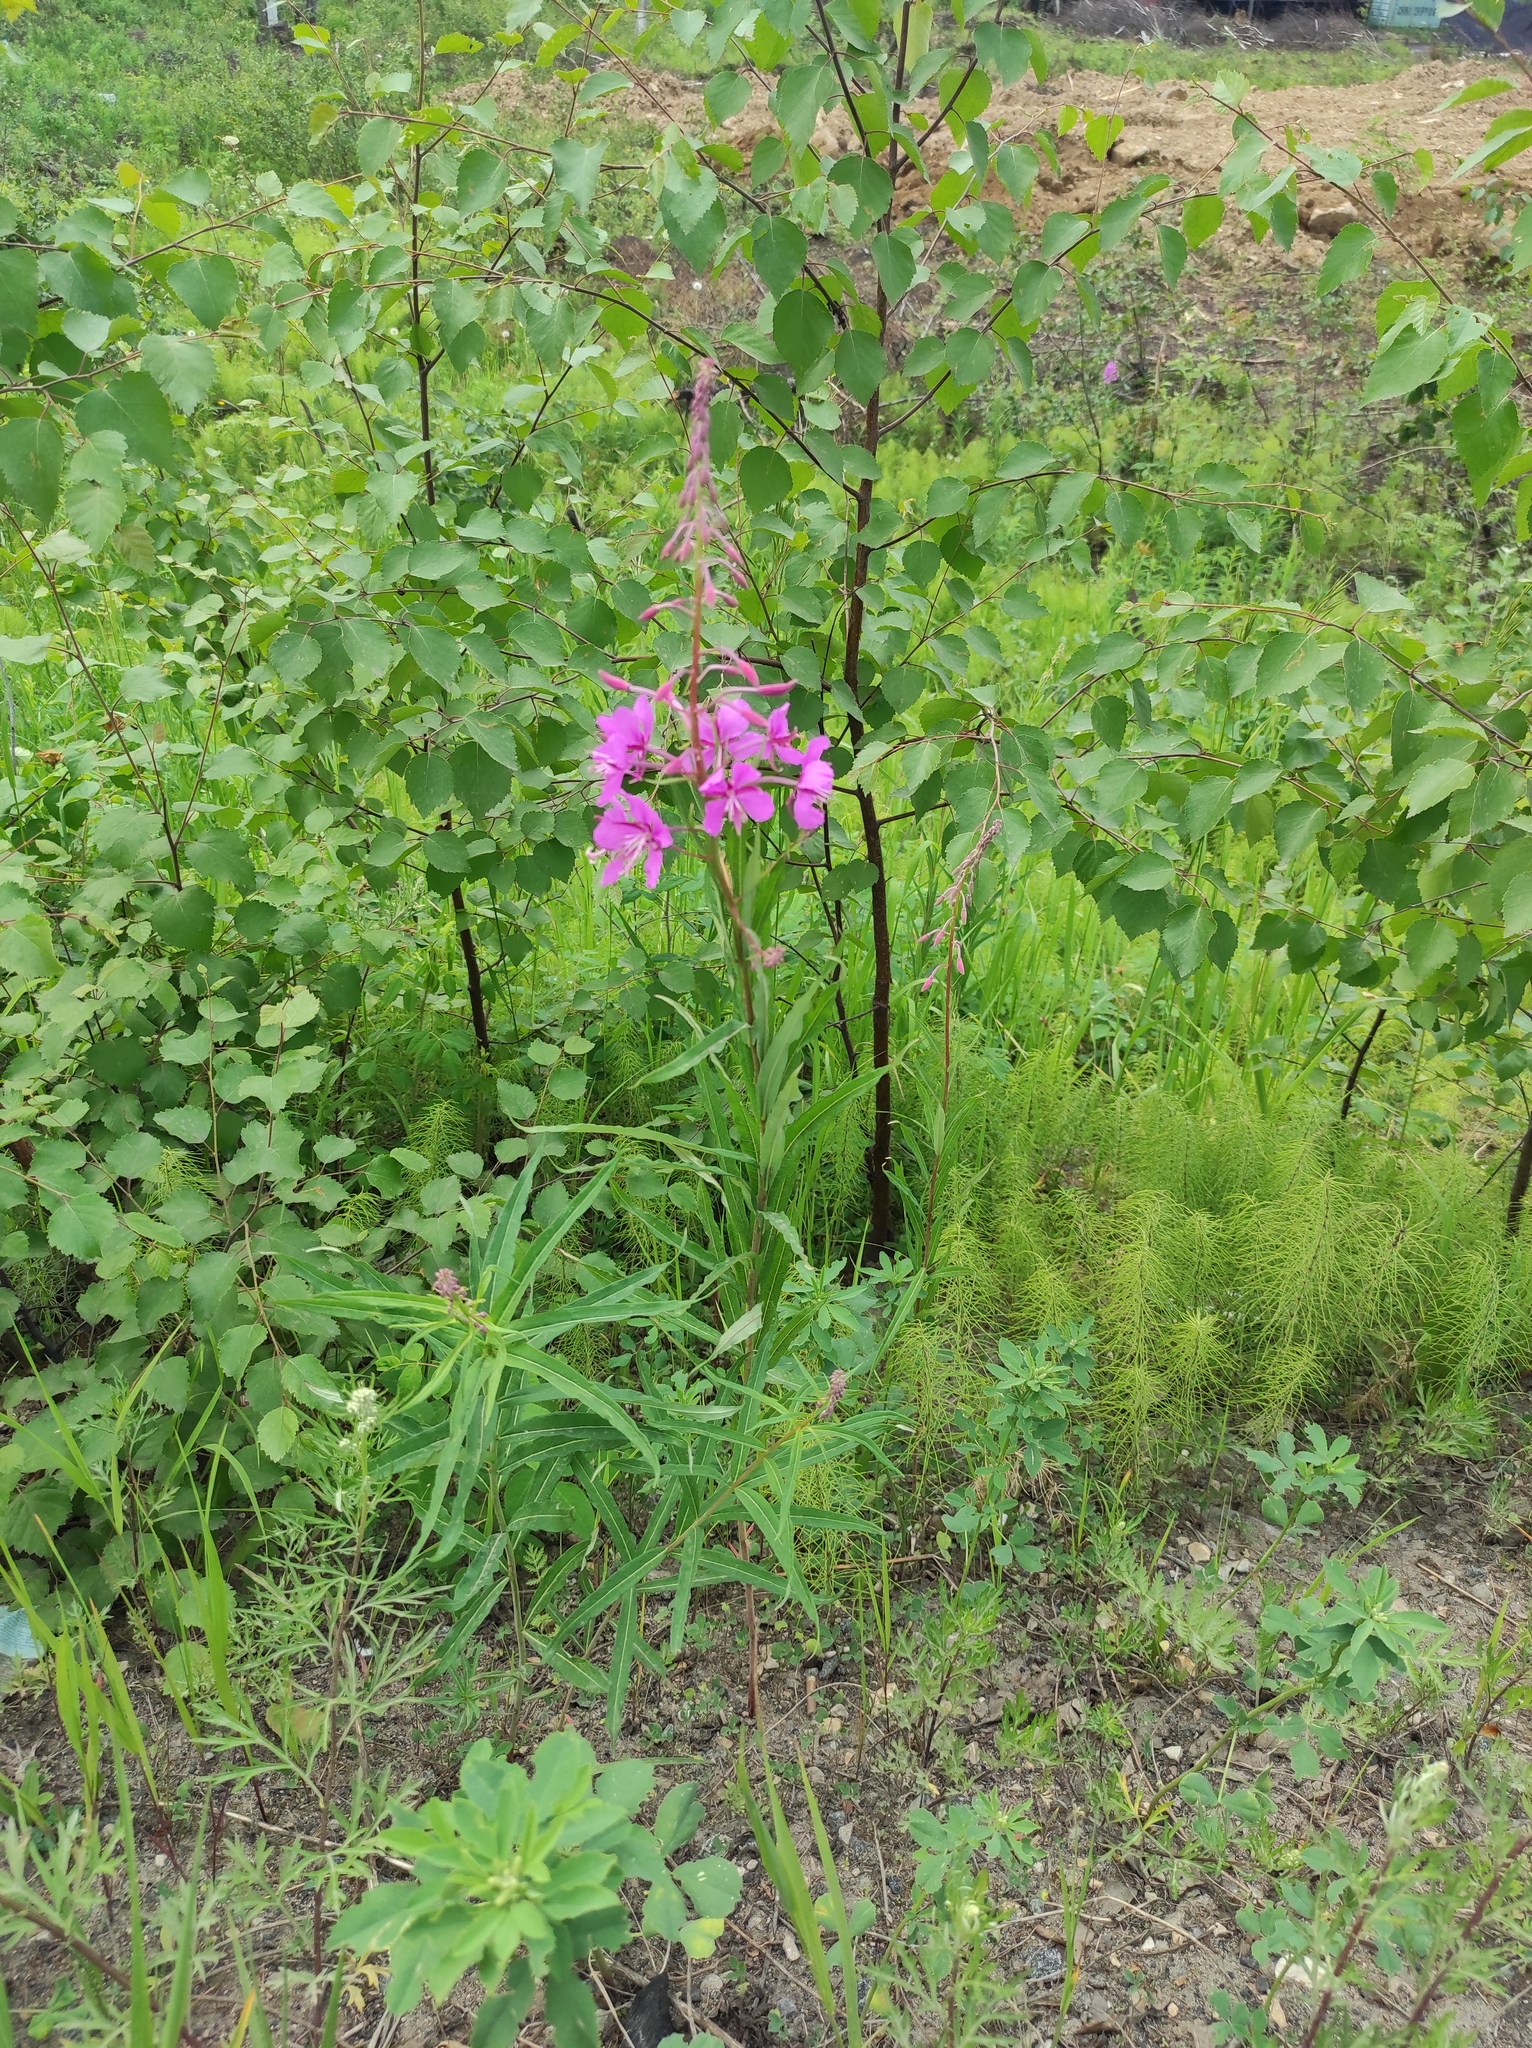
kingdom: Plantae
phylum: Tracheophyta
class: Magnoliopsida
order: Myrtales
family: Onagraceae
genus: Chamaenerion
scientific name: Chamaenerion angustifolium
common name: Fireweed
